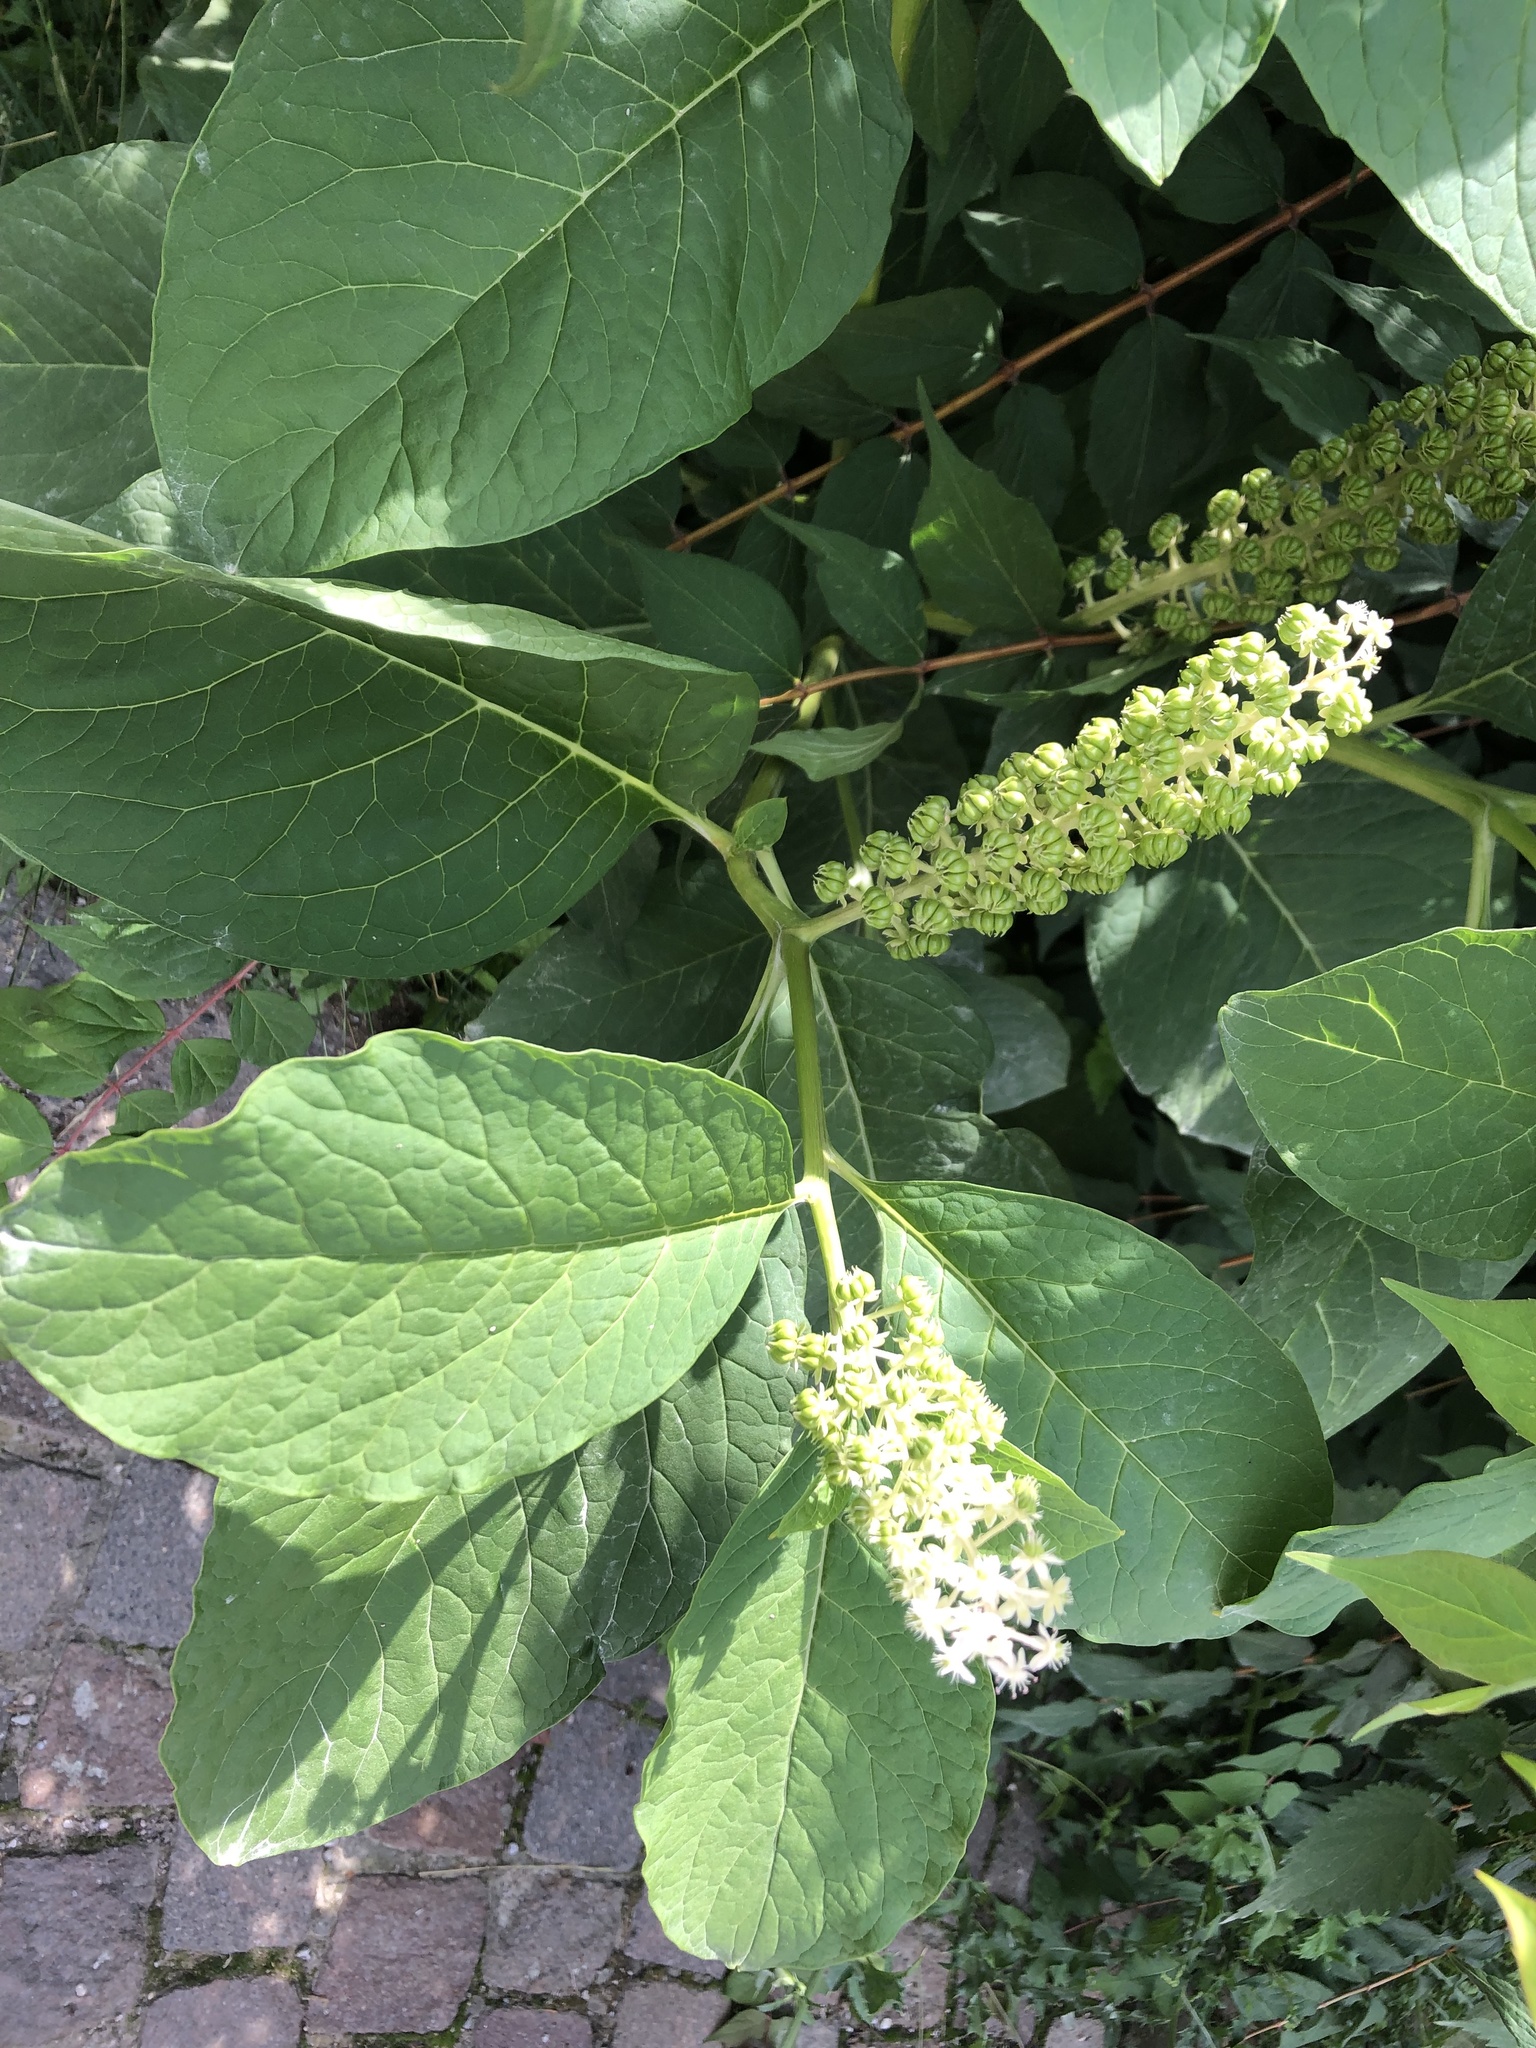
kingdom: Plantae
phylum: Tracheophyta
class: Magnoliopsida
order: Caryophyllales
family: Phytolaccaceae
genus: Phytolacca
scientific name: Phytolacca acinosa
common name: Indian pokeweed
